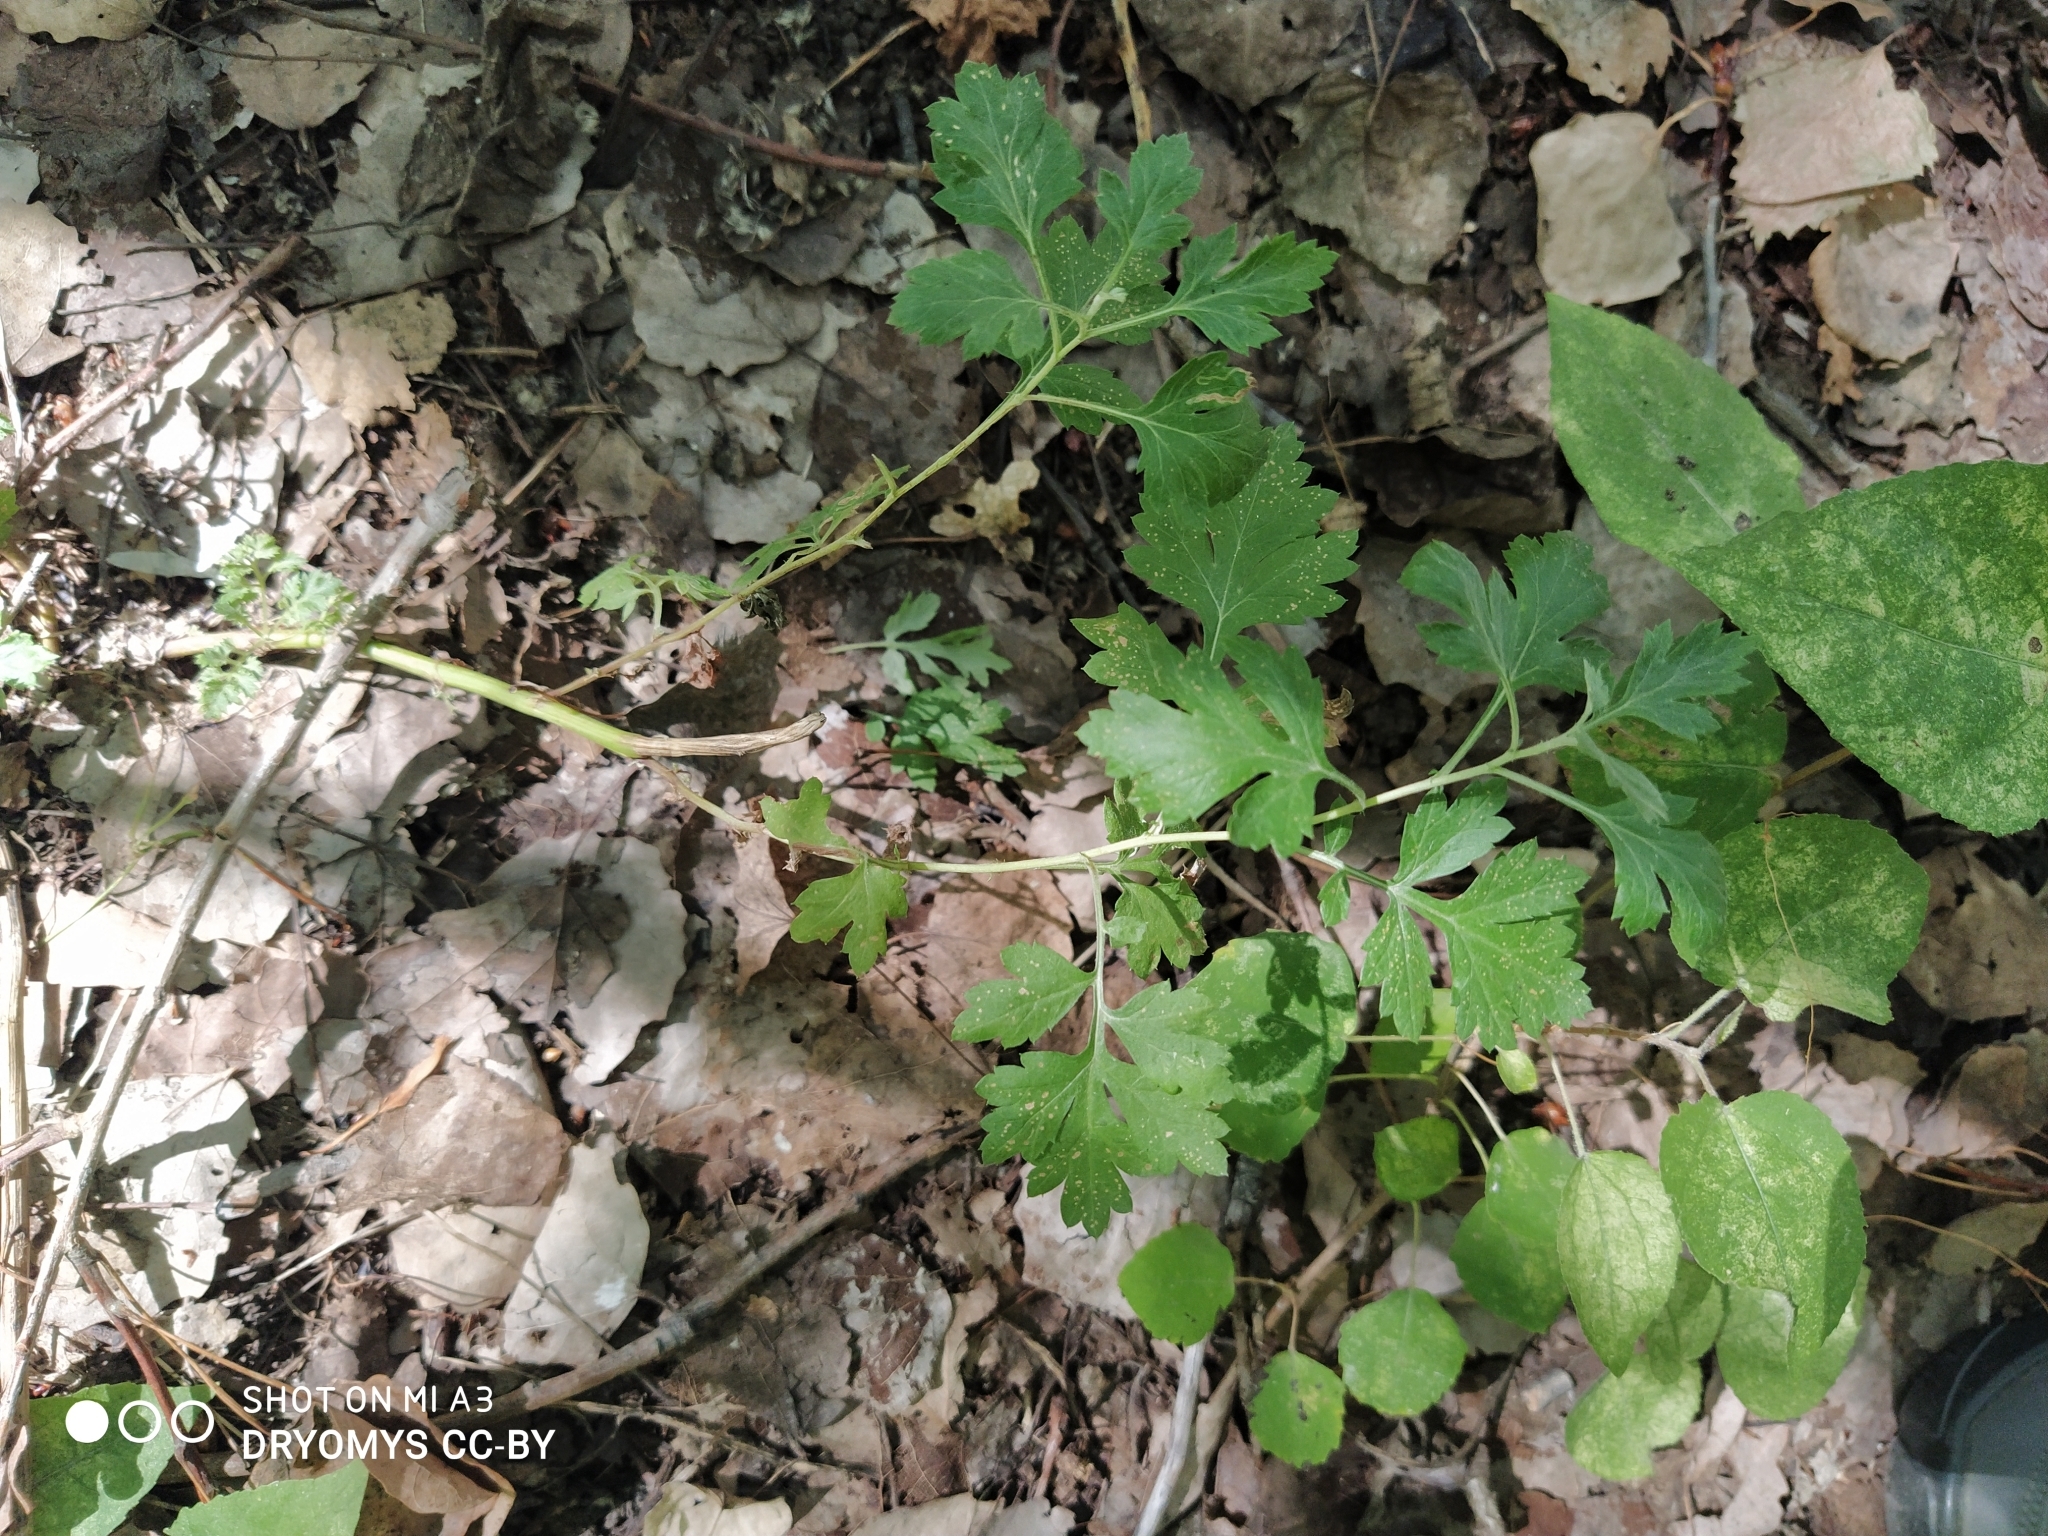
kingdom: Plantae
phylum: Tracheophyta
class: Magnoliopsida
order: Asterales
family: Asteraceae
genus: Artemisia
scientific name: Artemisia vulgaris
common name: Mugwort
